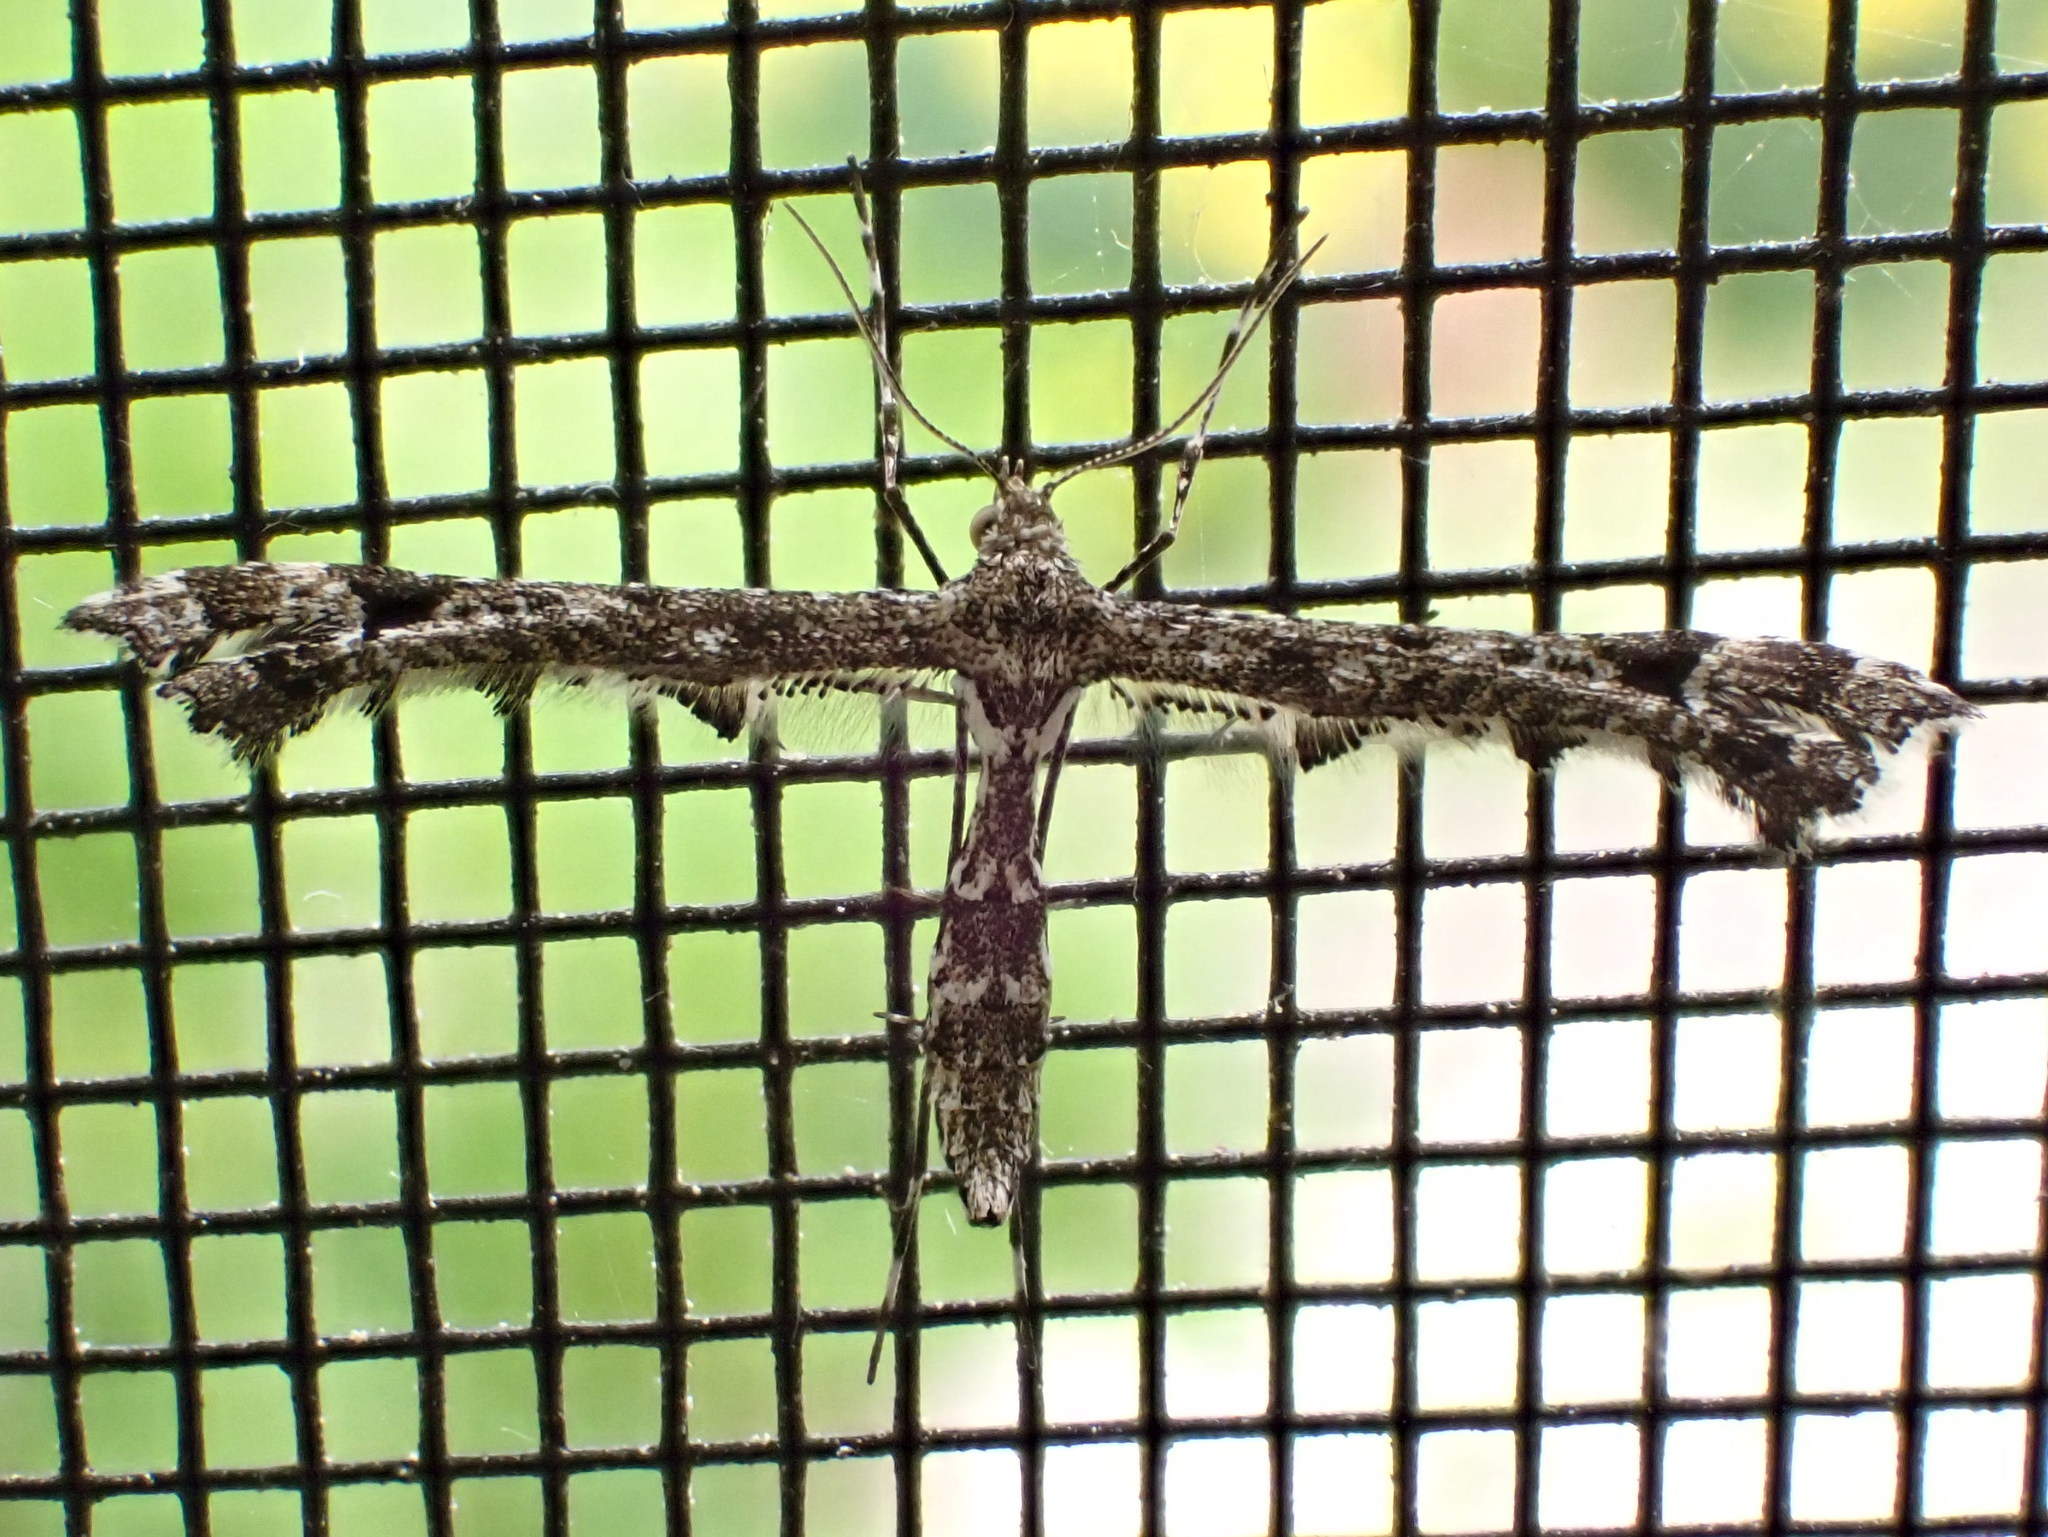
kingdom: Animalia
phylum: Arthropoda
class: Insecta
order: Lepidoptera
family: Pterophoridae
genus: Amblyptilia
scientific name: Amblyptilia pica
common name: Geranium plume moth
